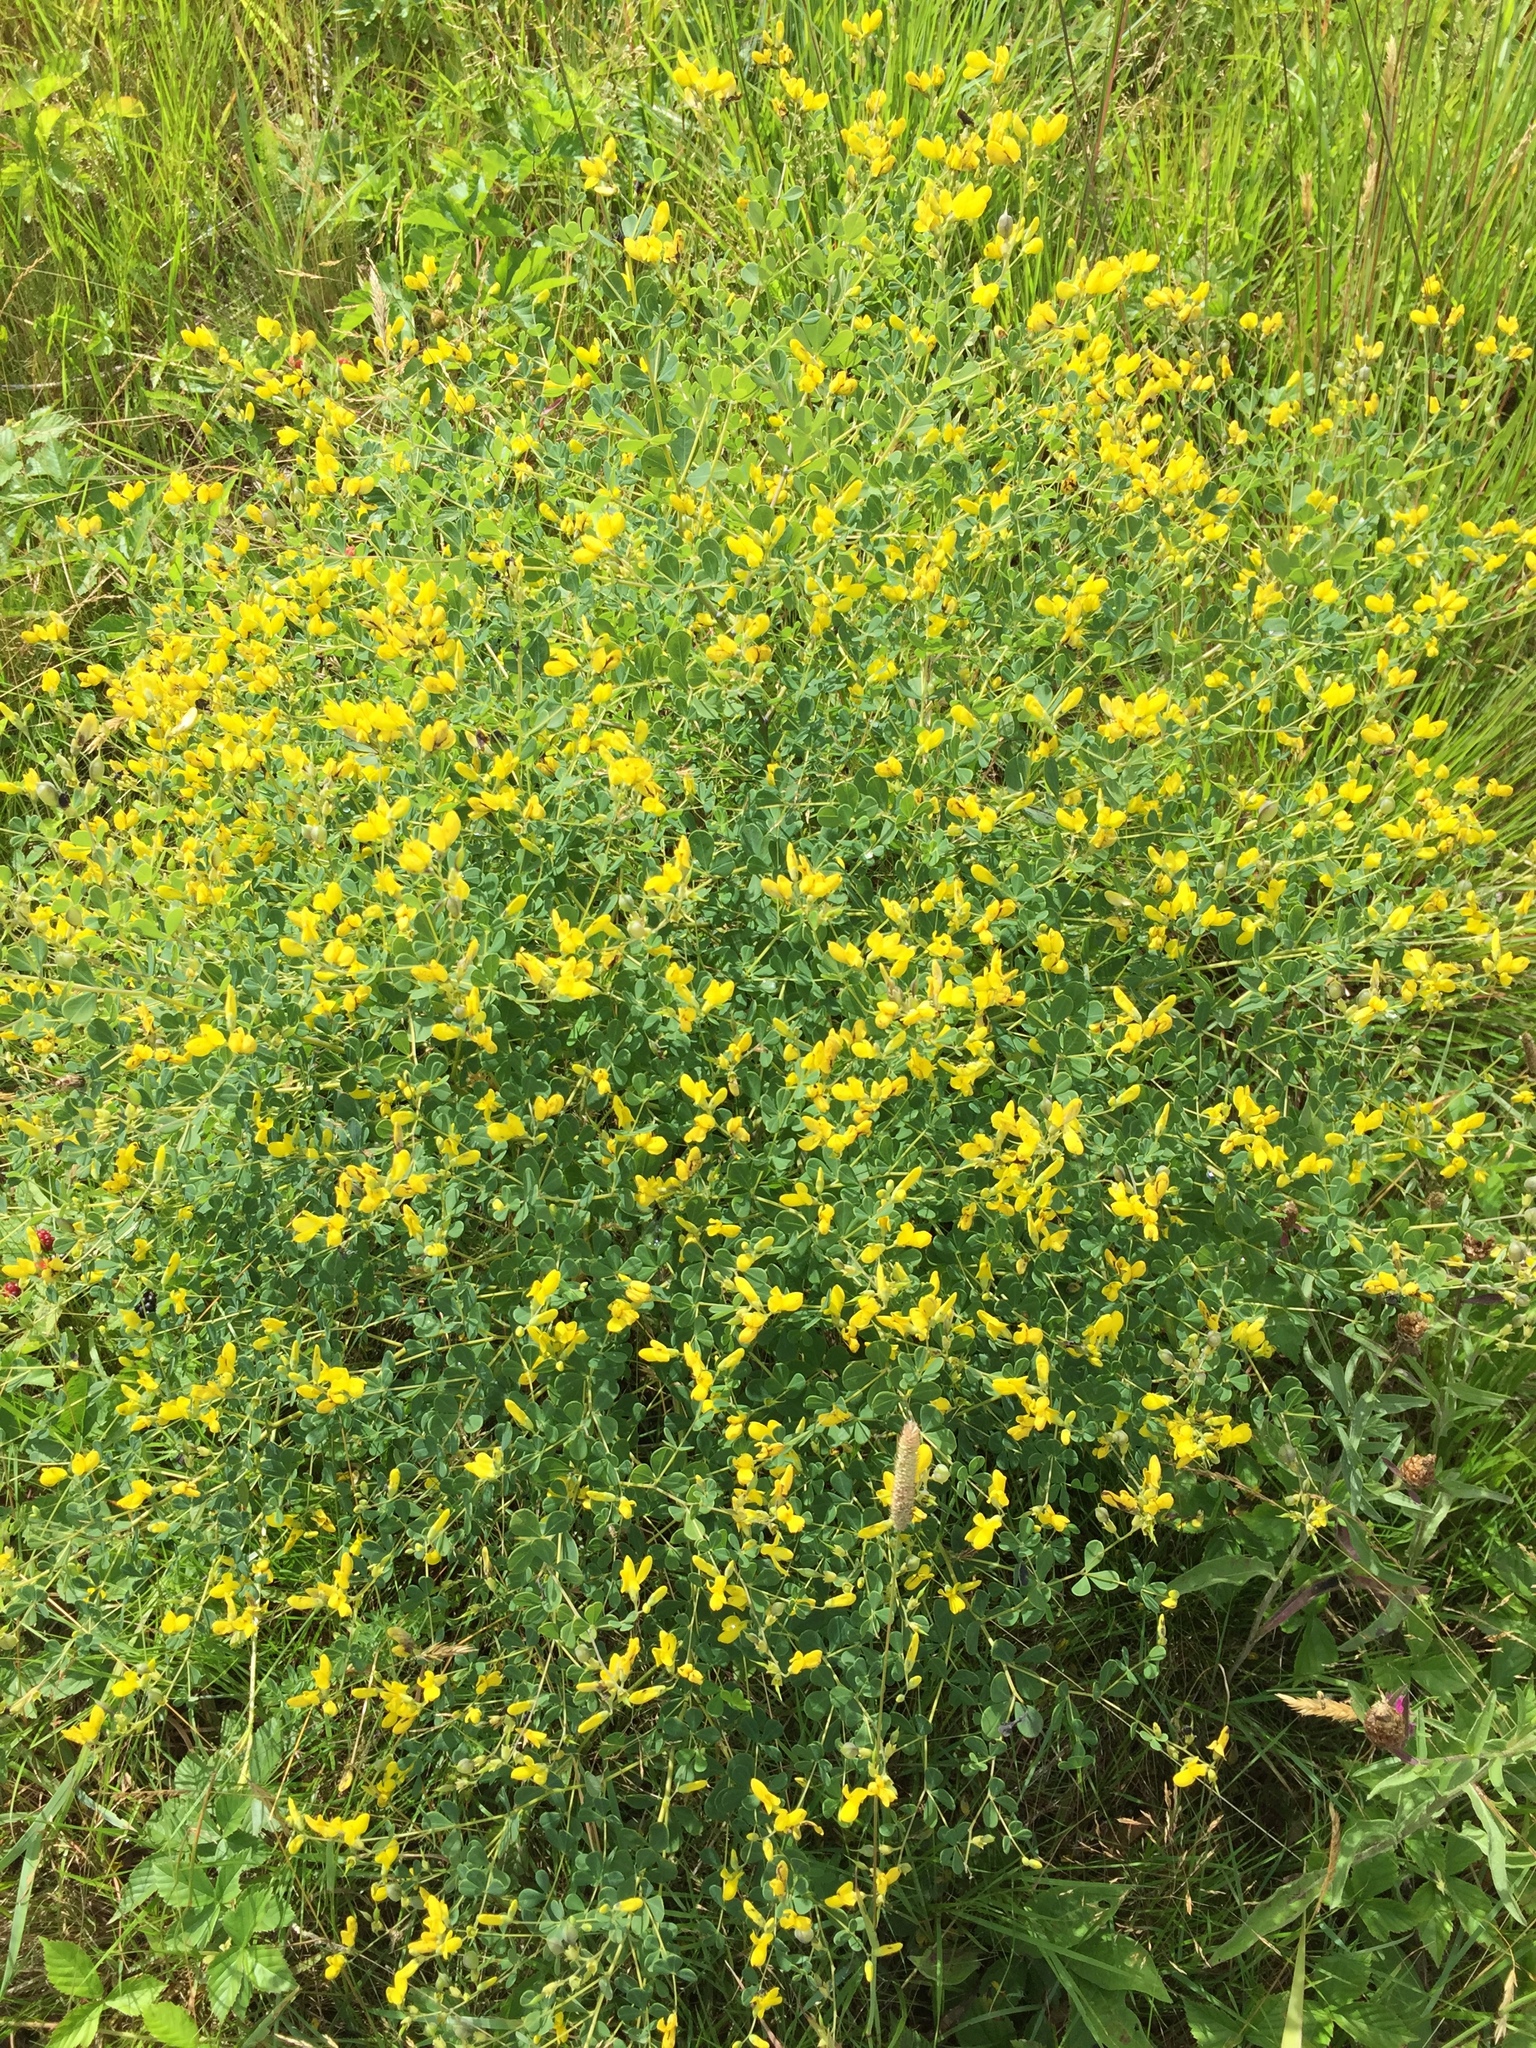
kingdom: Plantae
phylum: Tracheophyta
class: Magnoliopsida
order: Fabales
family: Fabaceae
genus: Baptisia
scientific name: Baptisia tinctoria
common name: Wild indigo
